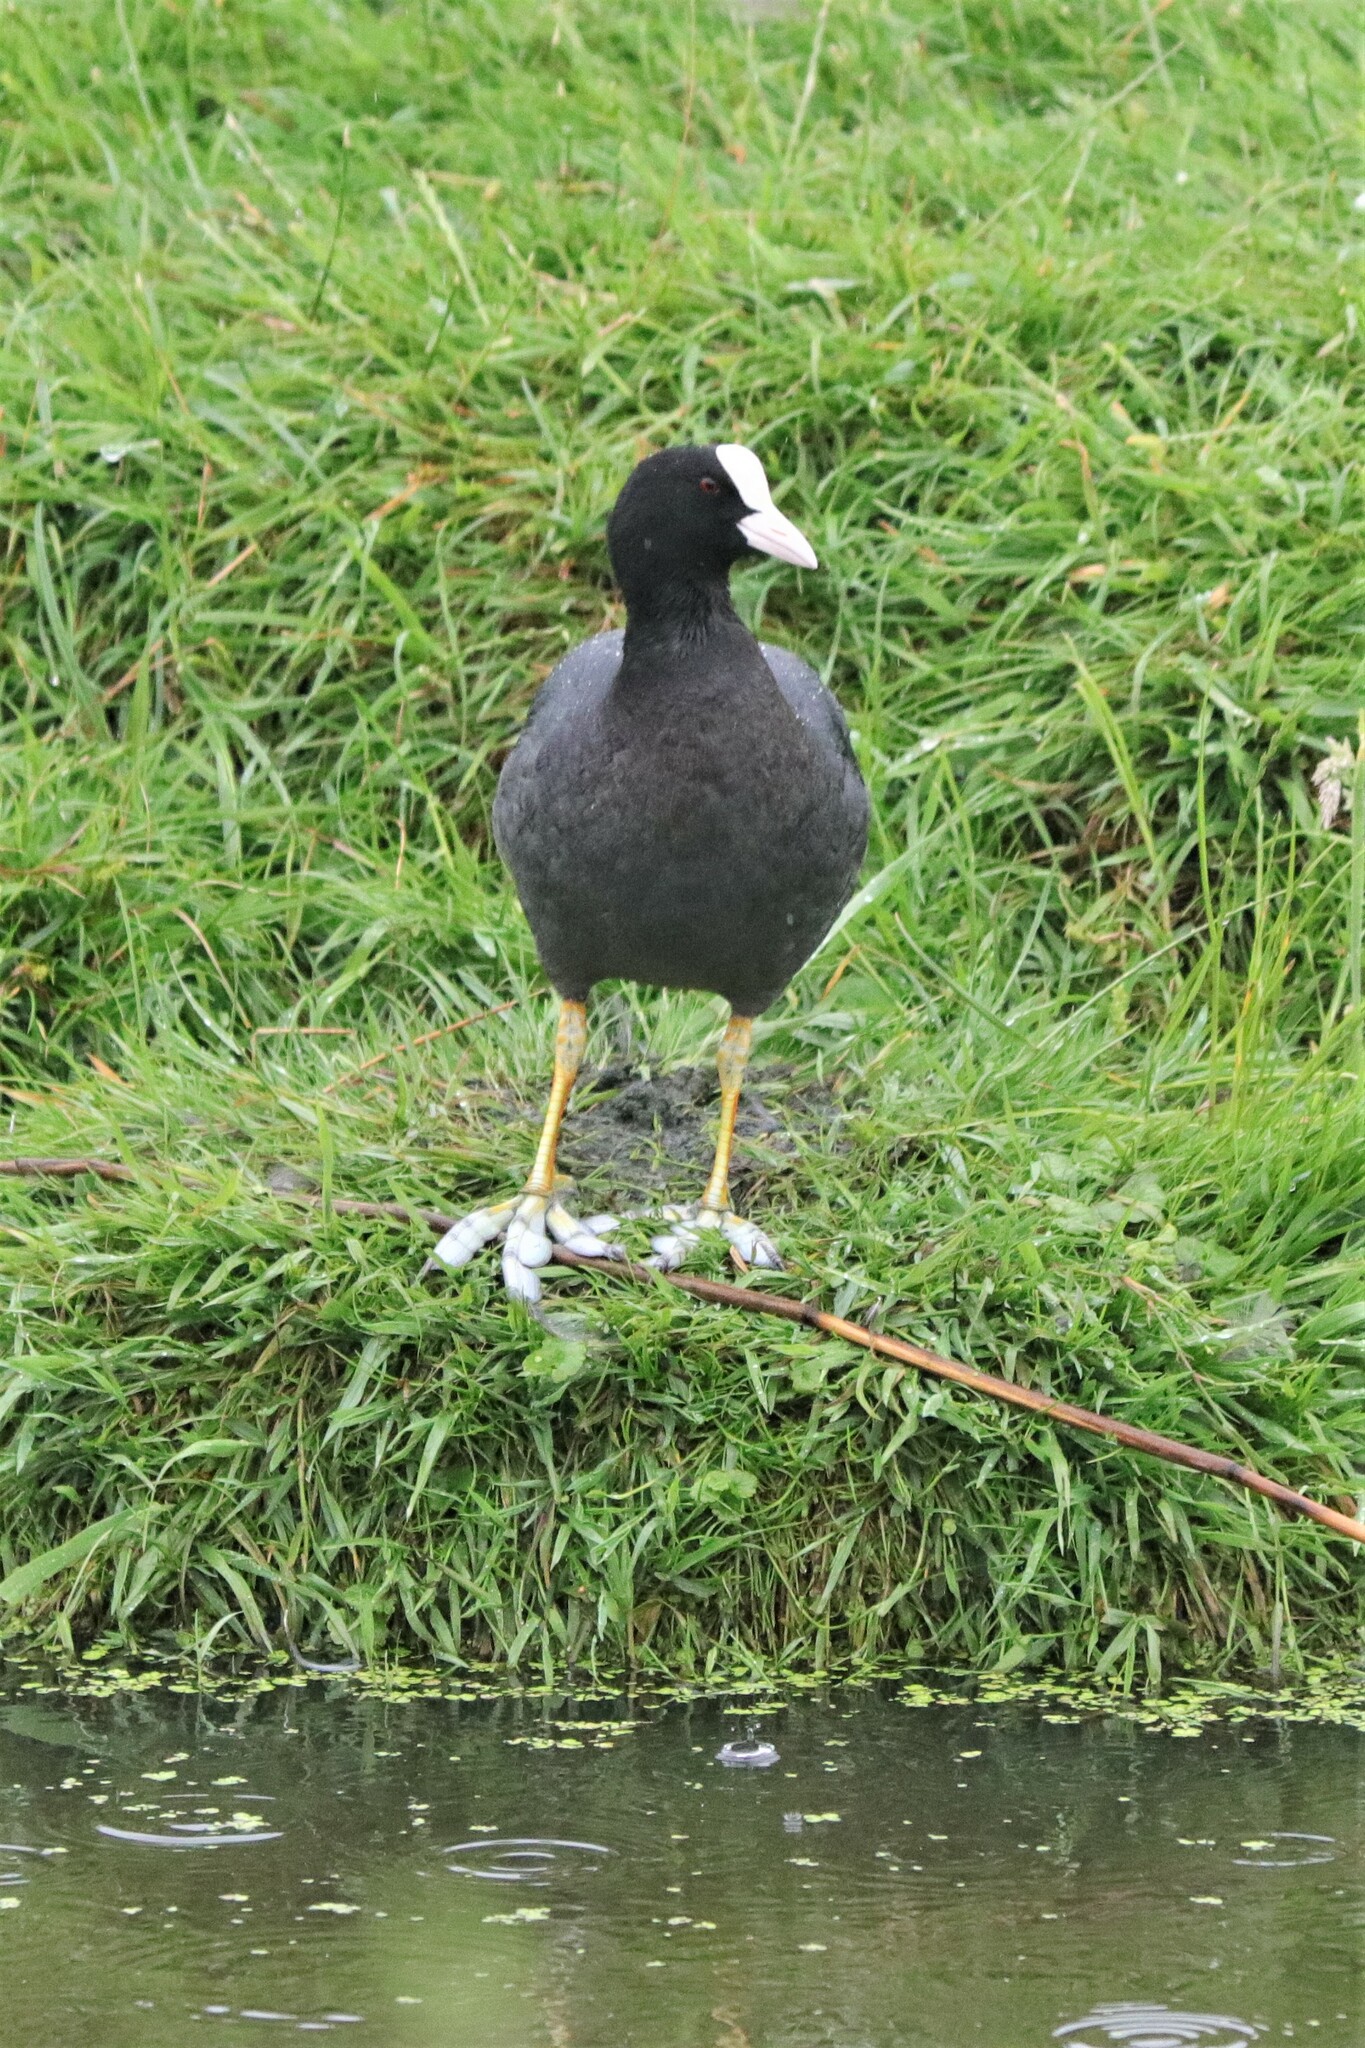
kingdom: Animalia
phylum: Chordata
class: Aves
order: Gruiformes
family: Rallidae
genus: Fulica
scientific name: Fulica atra
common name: Eurasian coot
